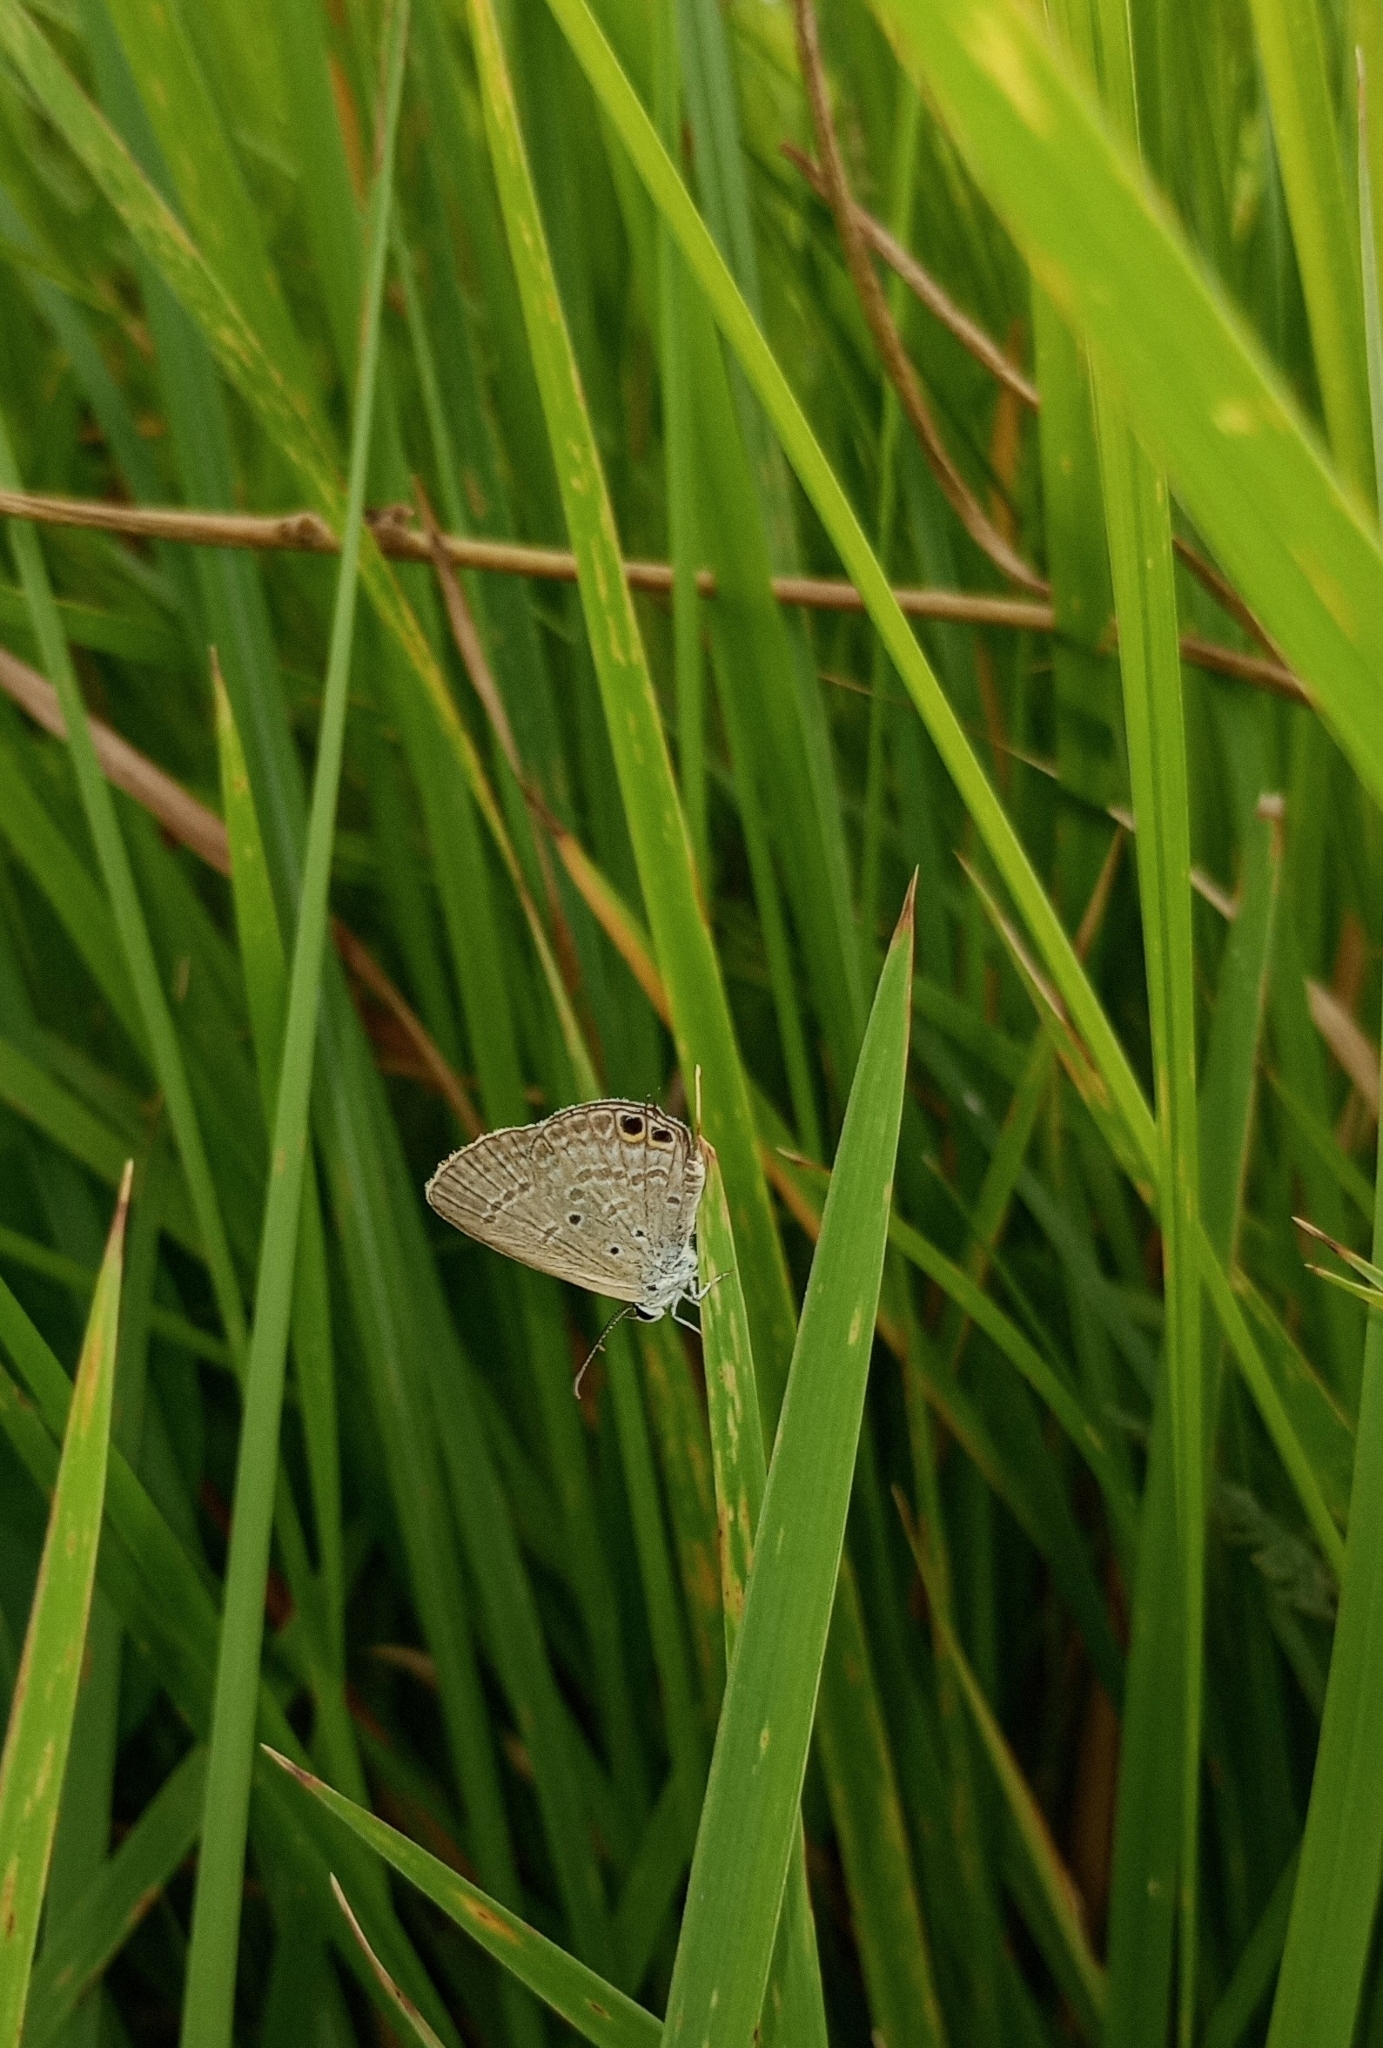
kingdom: Animalia
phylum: Arthropoda
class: Insecta
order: Lepidoptera
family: Lycaenidae
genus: Euchrysops
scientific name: Euchrysops cnejus
